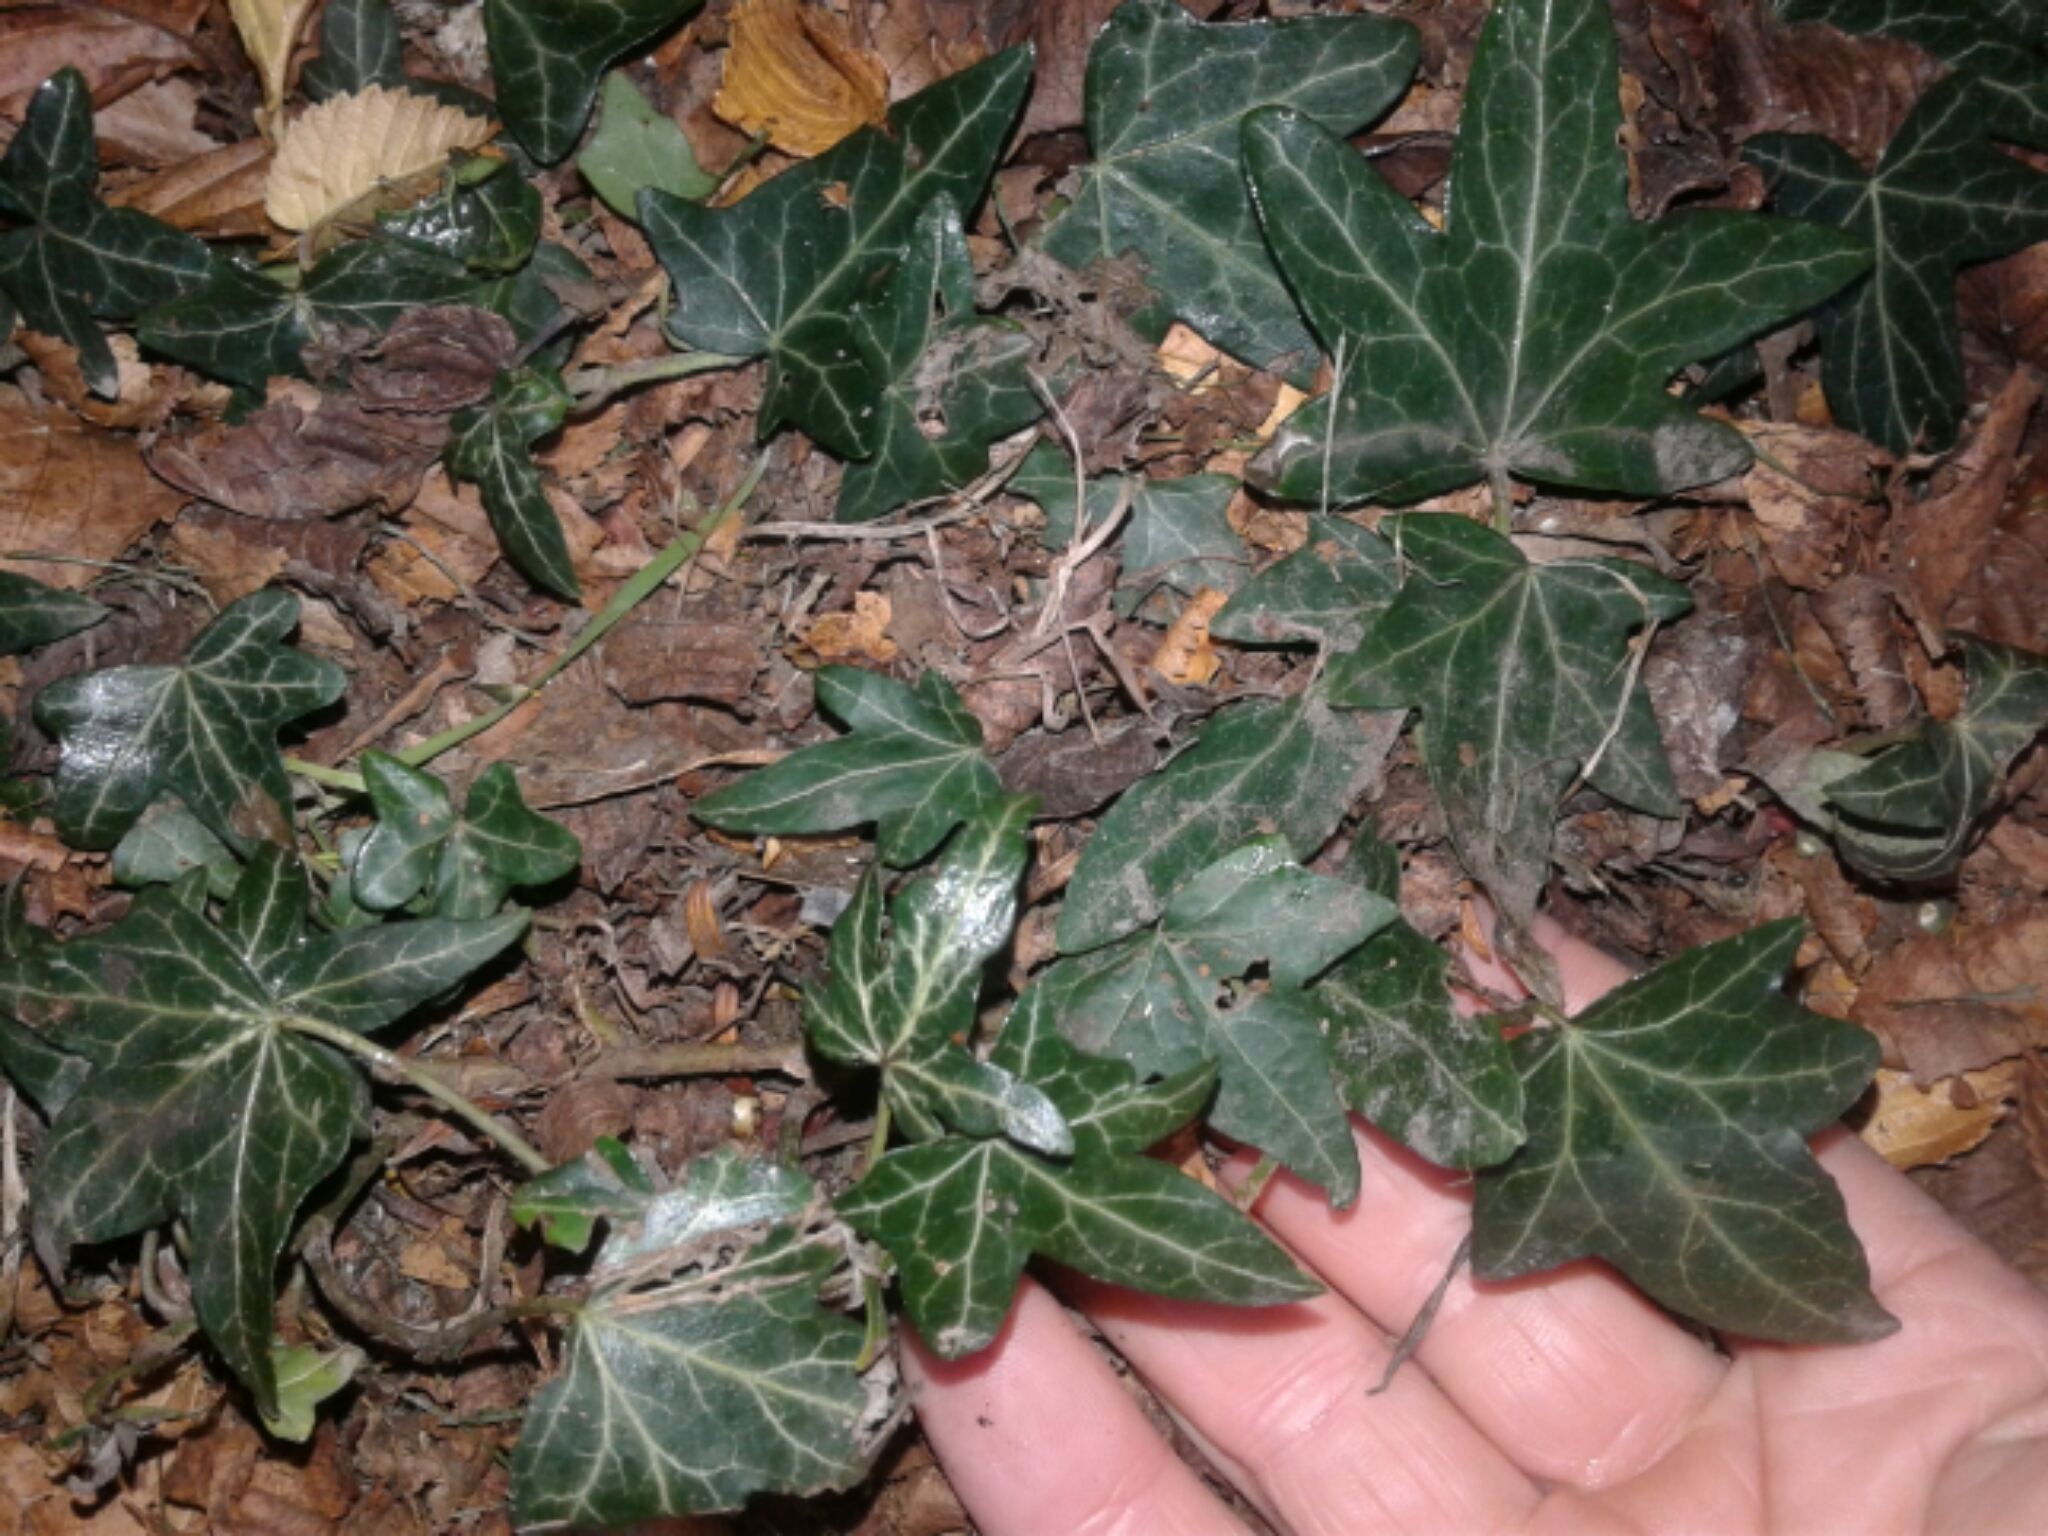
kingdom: Plantae
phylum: Tracheophyta
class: Magnoliopsida
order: Apiales
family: Araliaceae
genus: Hedera
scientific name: Hedera helix
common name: Ivy
